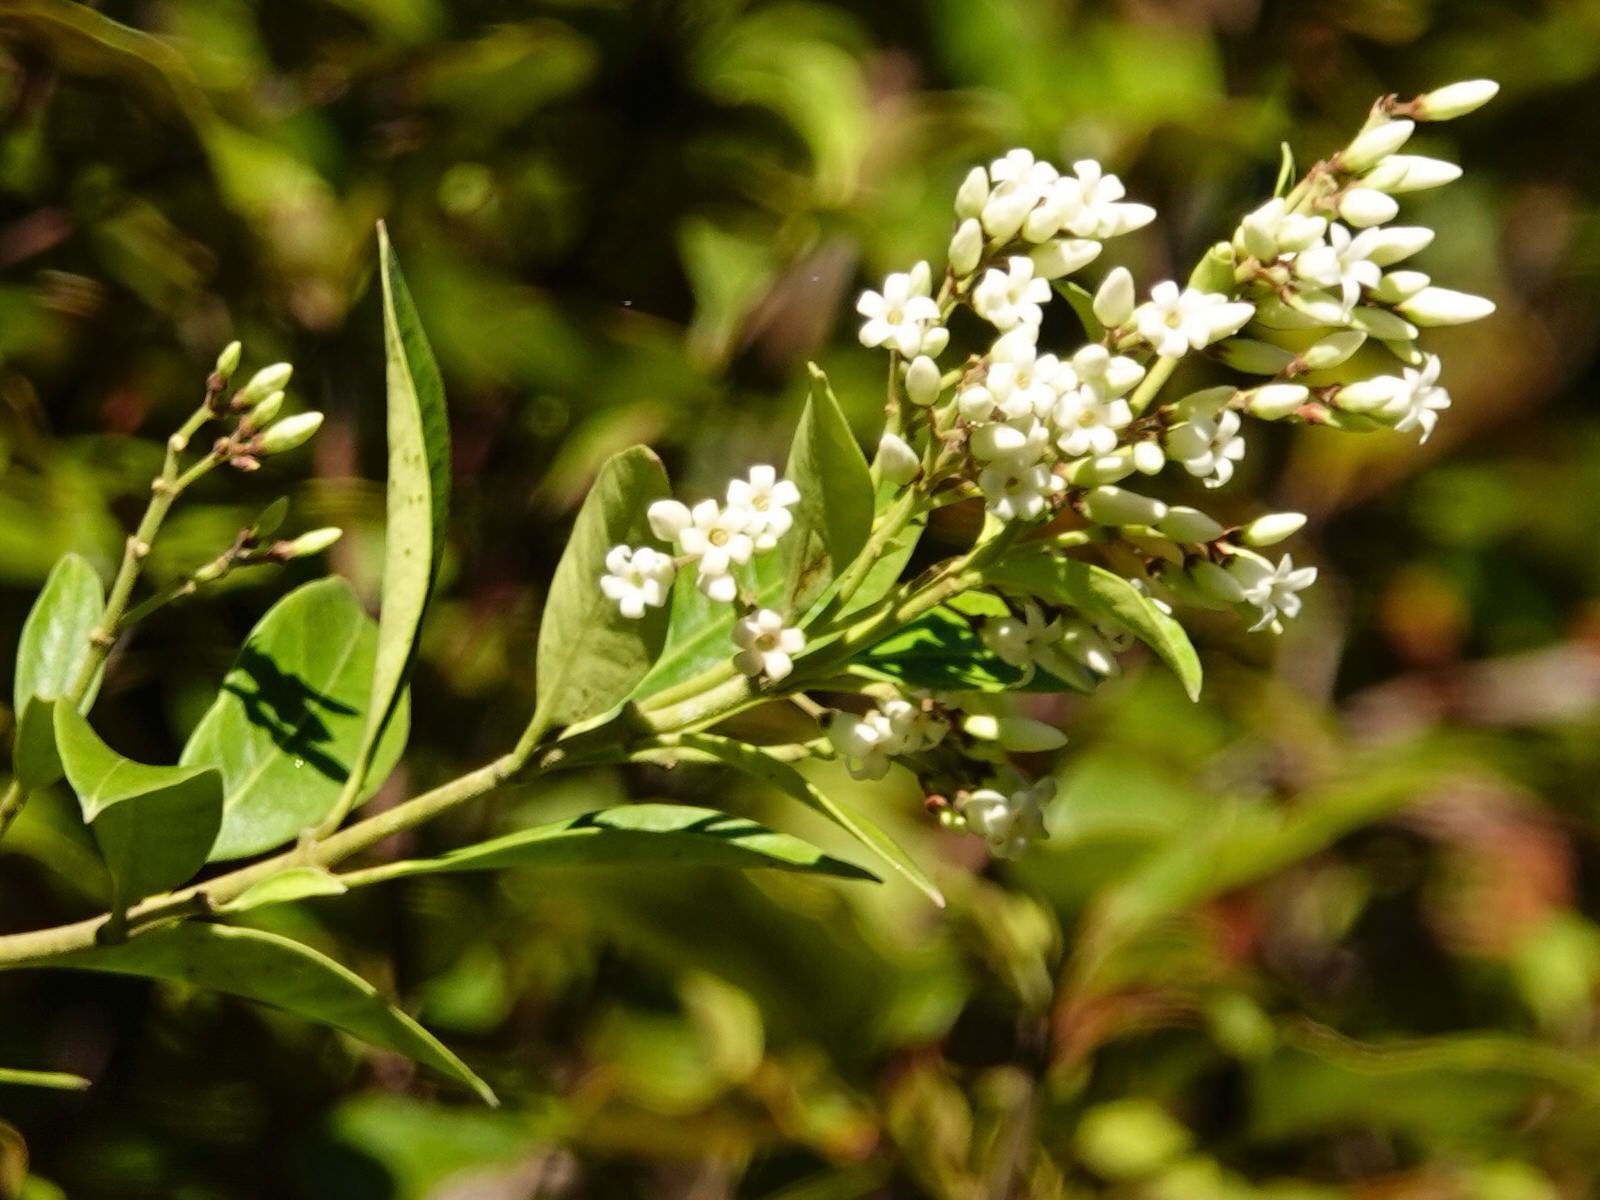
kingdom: Plantae
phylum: Tracheophyta
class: Magnoliopsida
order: Gentianales
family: Apocynaceae
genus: Parsonsia
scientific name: Parsonsia heterophylla
